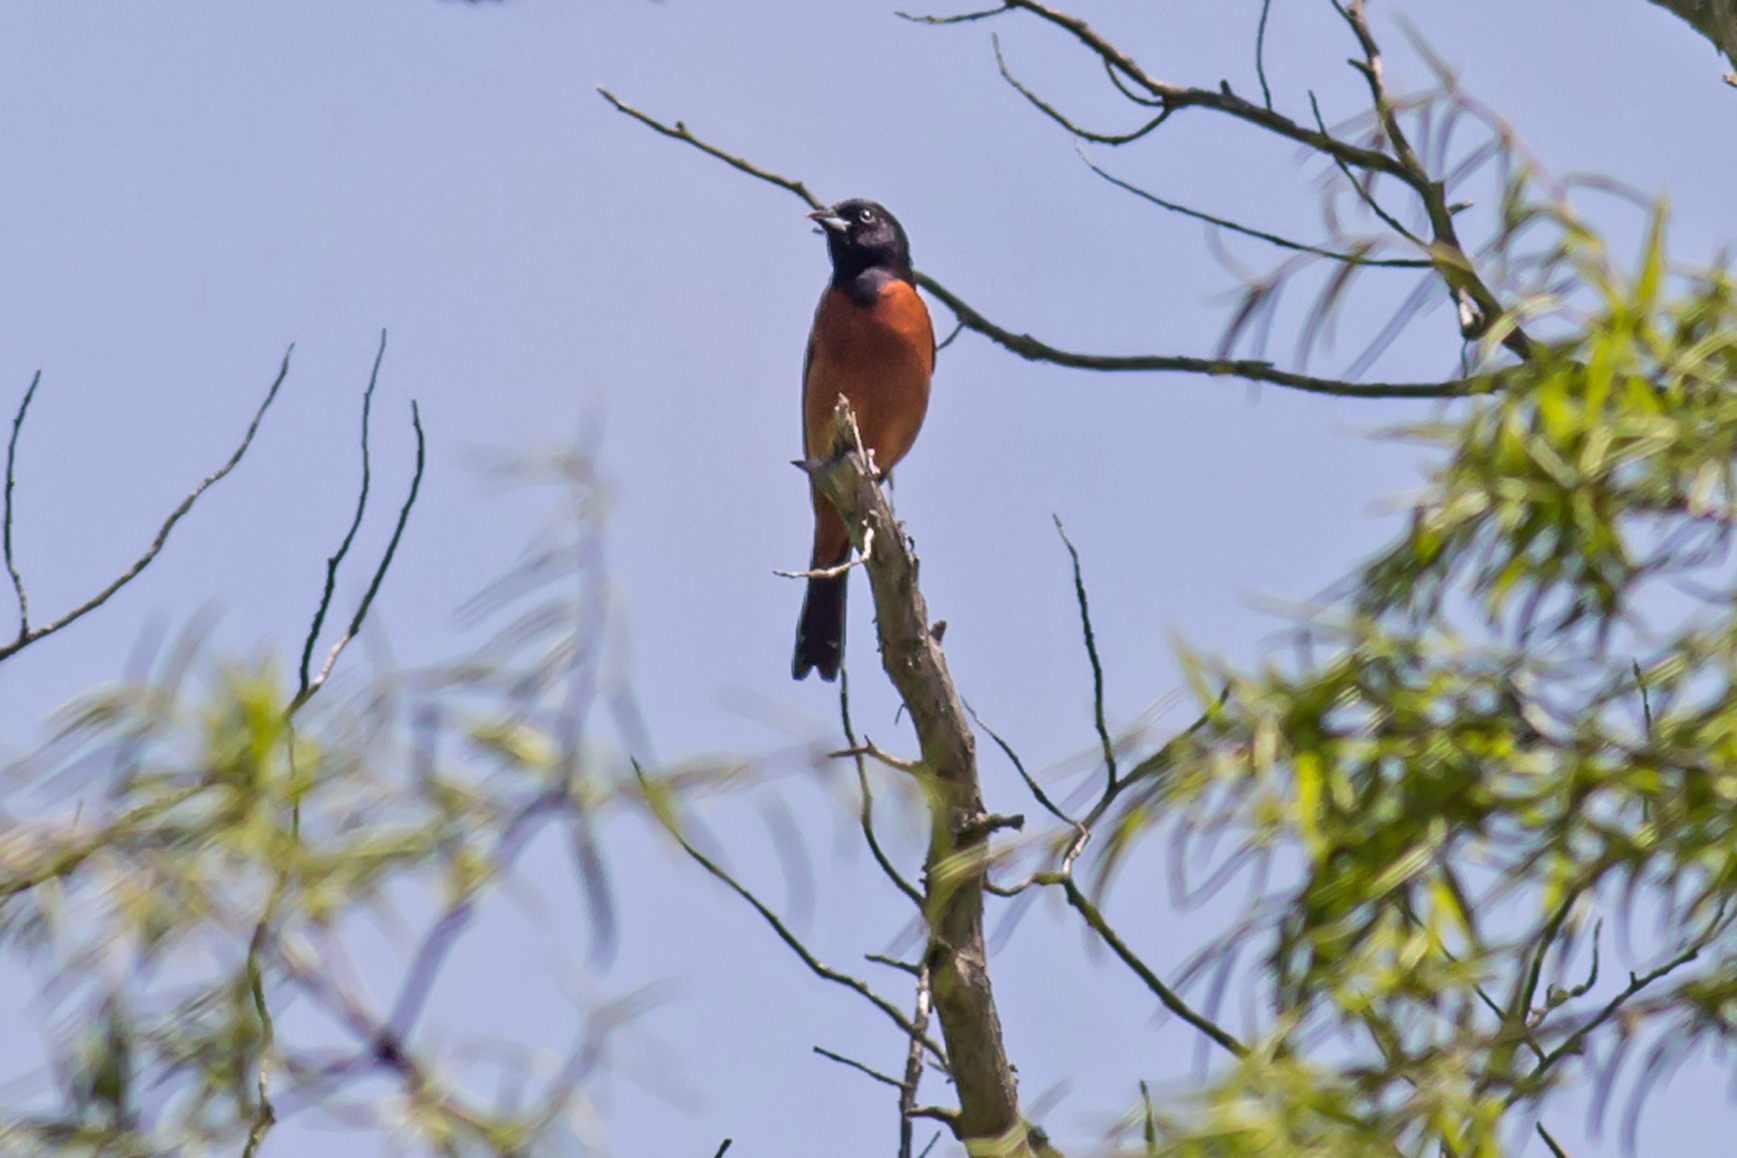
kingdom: Animalia
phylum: Chordata
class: Aves
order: Passeriformes
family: Icteridae
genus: Icterus
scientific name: Icterus spurius
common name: Orchard oriole
